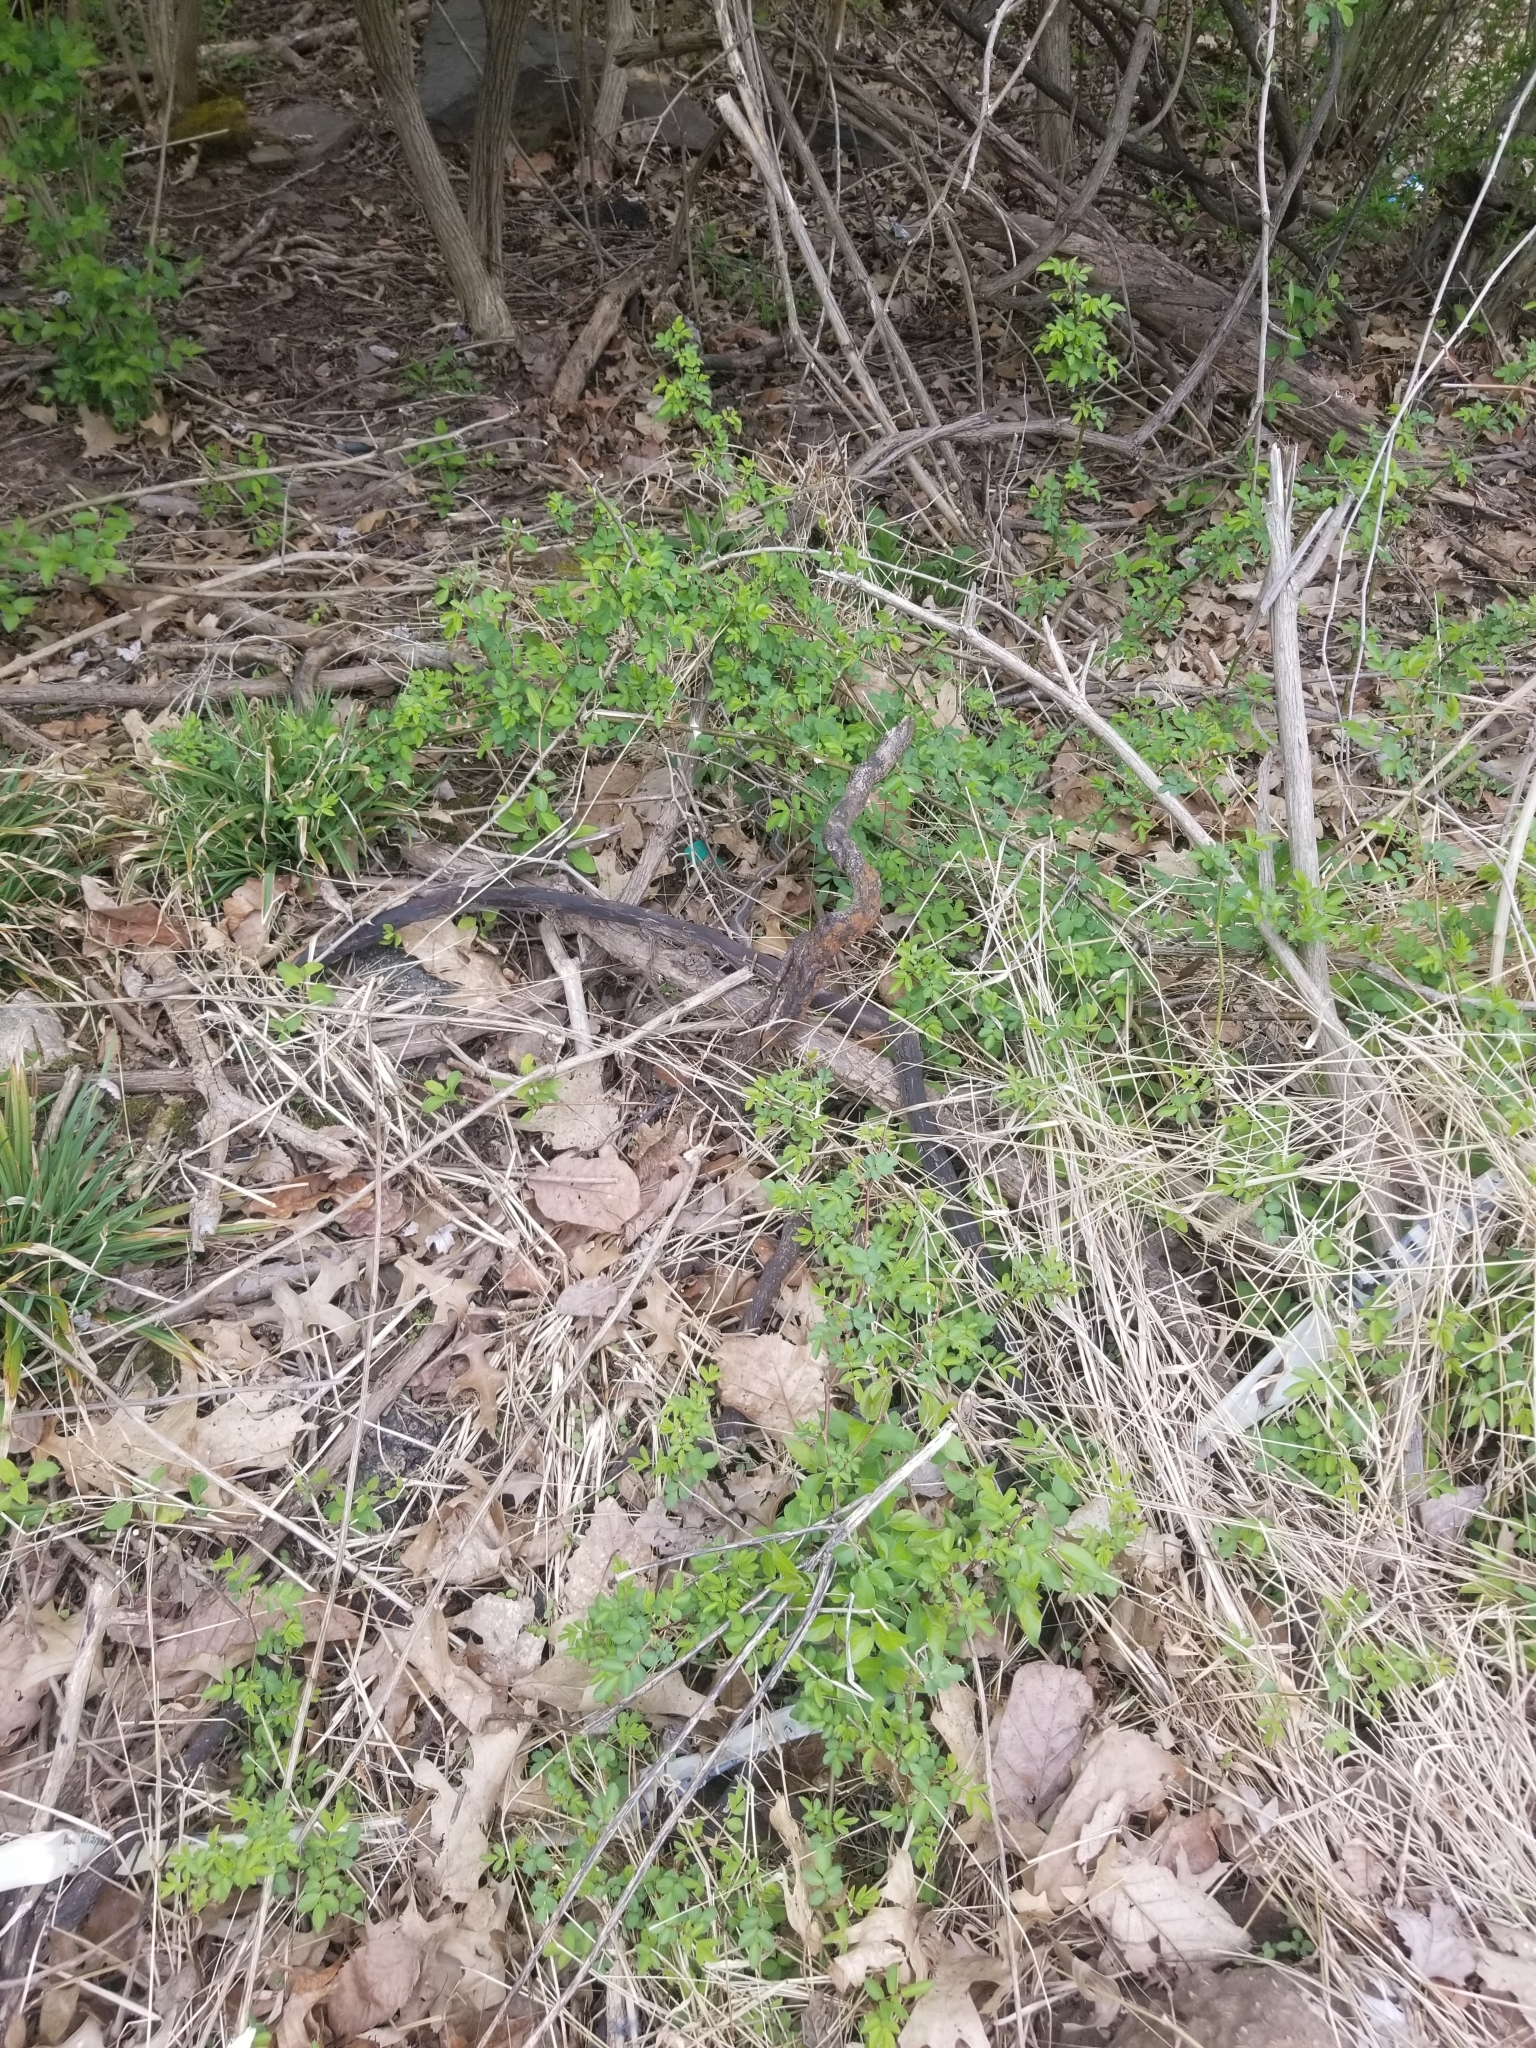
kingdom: Animalia
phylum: Chordata
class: Squamata
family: Colubridae
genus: Thamnophis
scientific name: Thamnophis sirtalis
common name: Common garter snake
